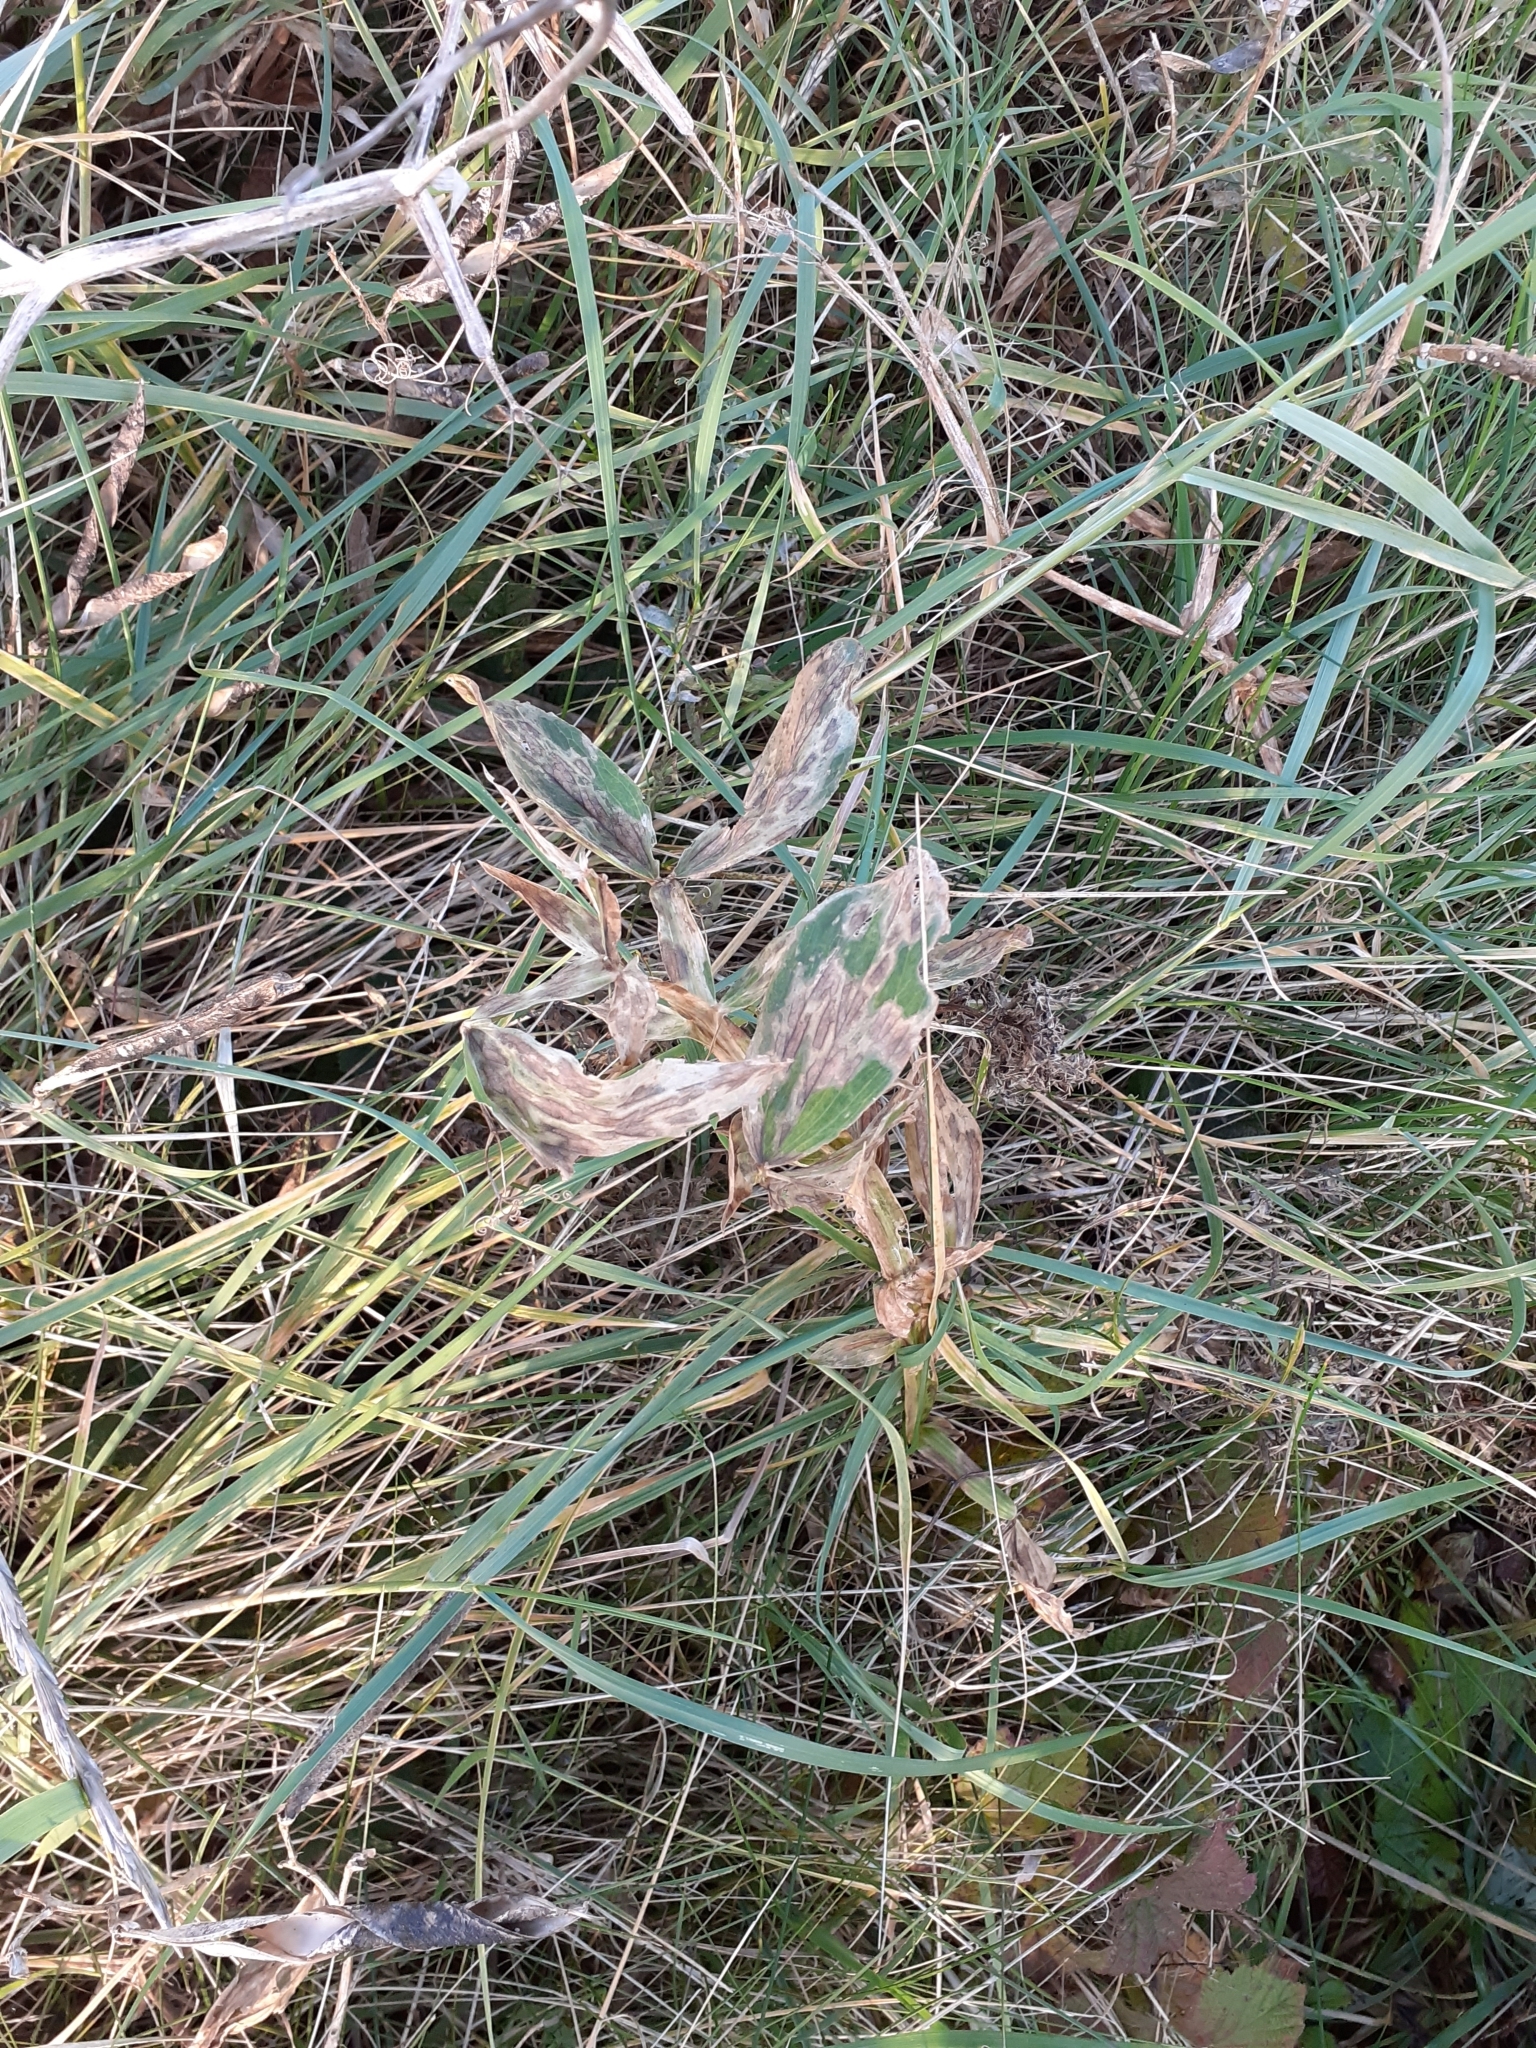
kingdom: Plantae
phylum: Tracheophyta
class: Magnoliopsida
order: Fabales
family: Fabaceae
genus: Lathyrus
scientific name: Lathyrus latifolius
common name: Perennial pea
